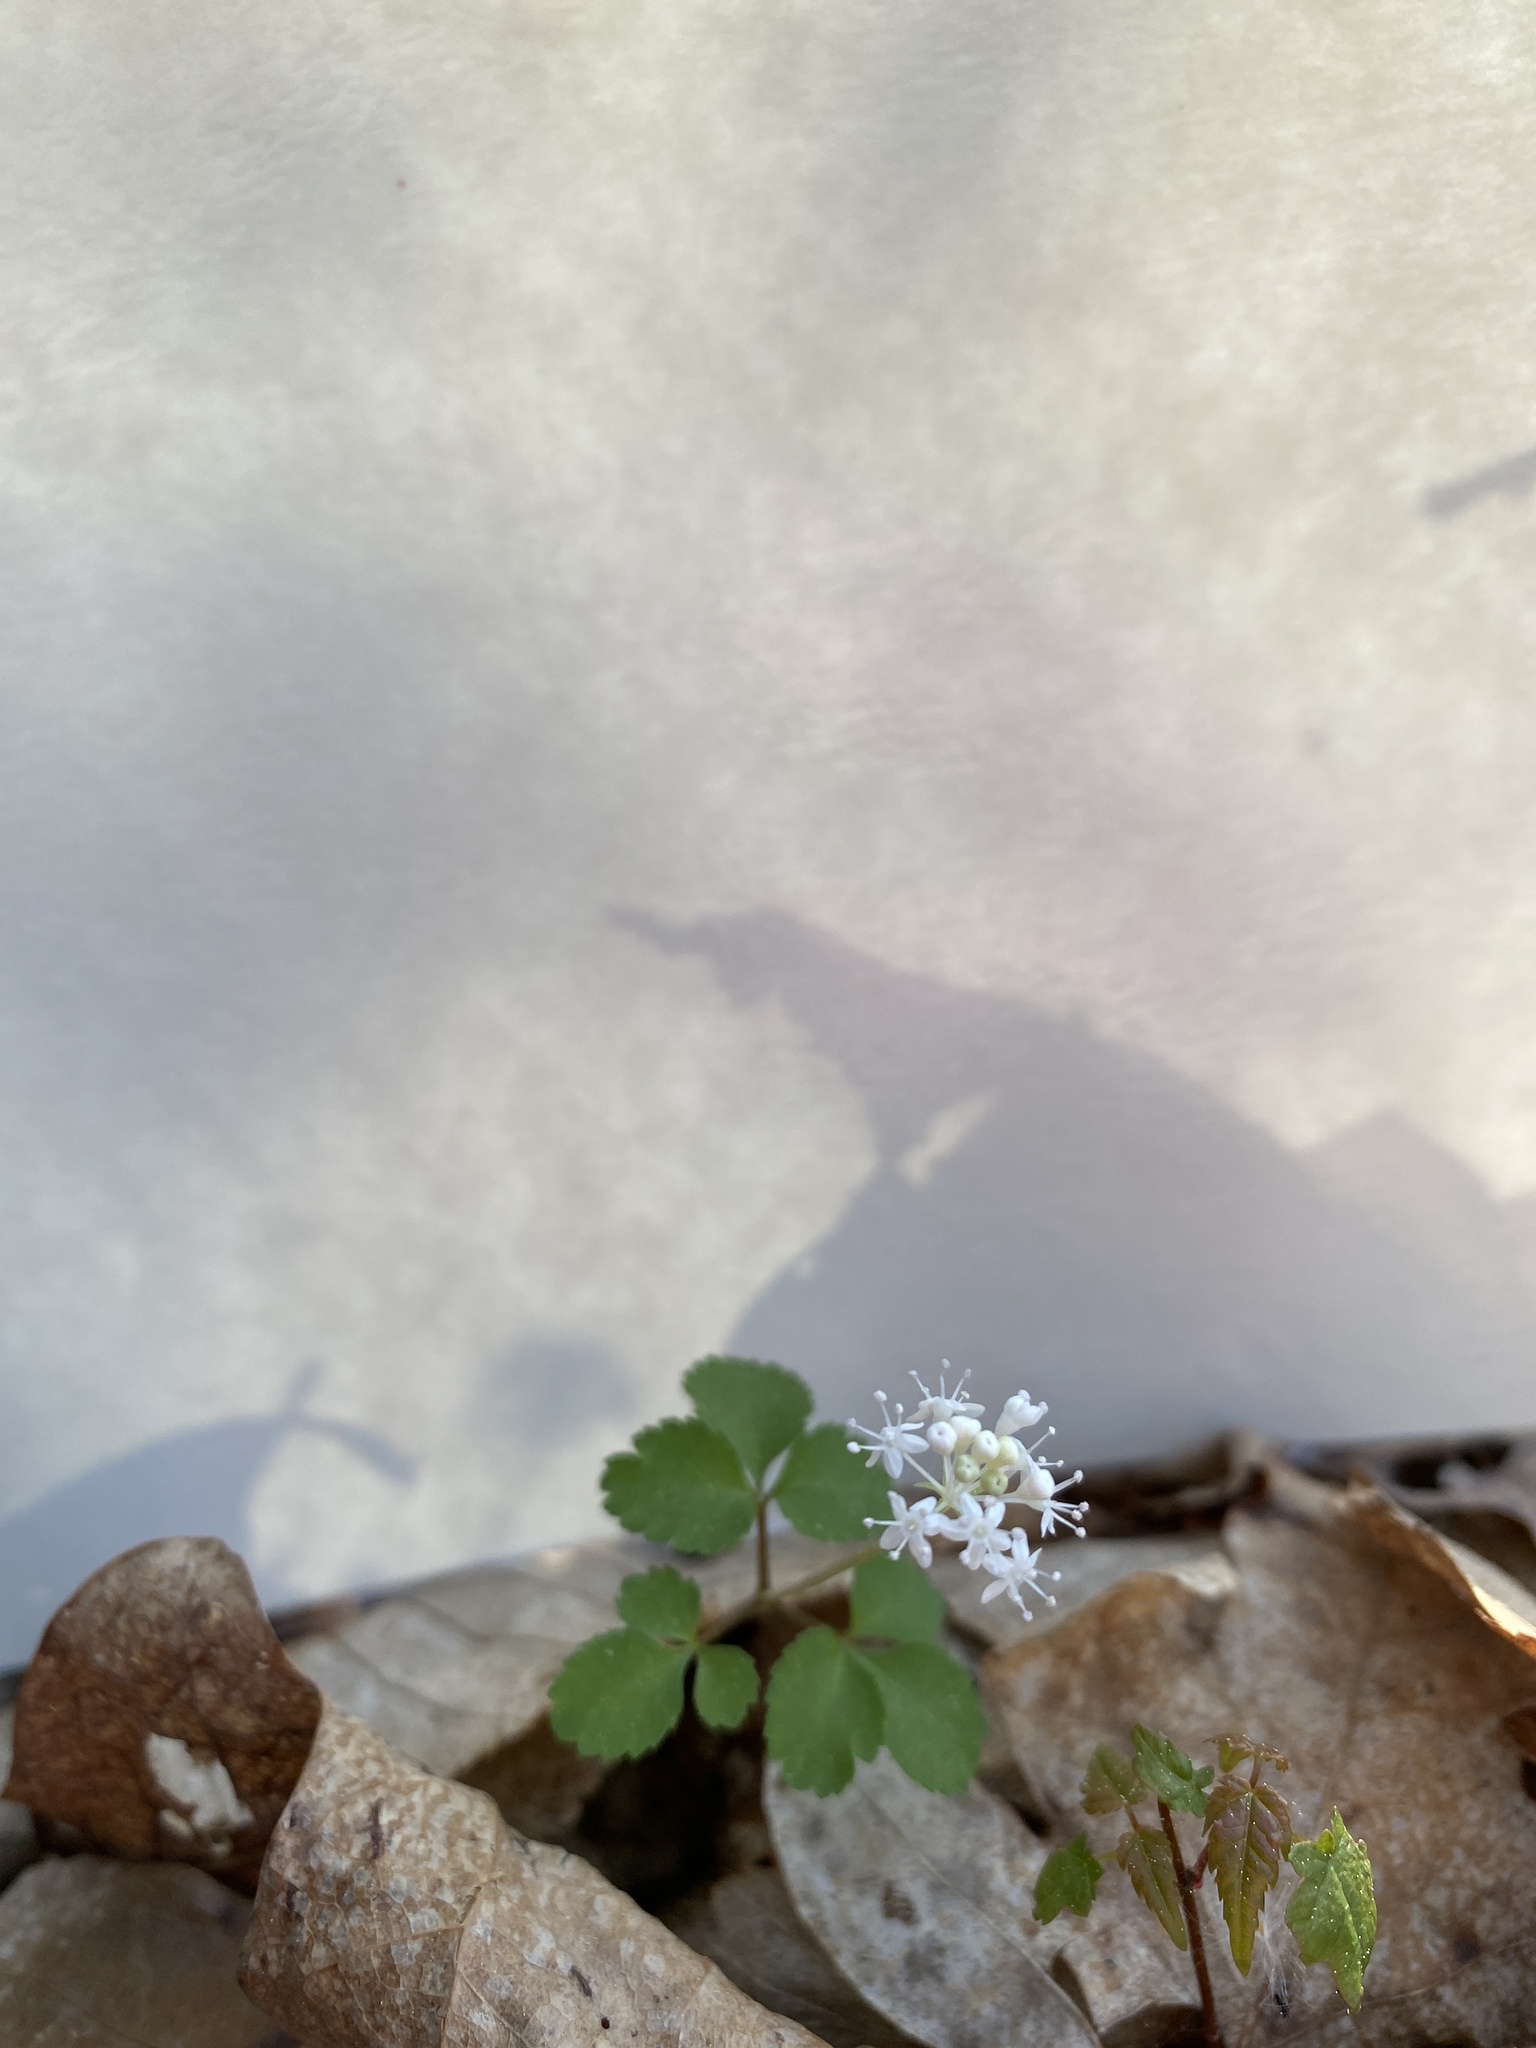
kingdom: Plantae
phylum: Tracheophyta
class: Magnoliopsida
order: Apiales
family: Araliaceae
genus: Panax
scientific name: Panax trifolius
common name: Dwarf ginseng
